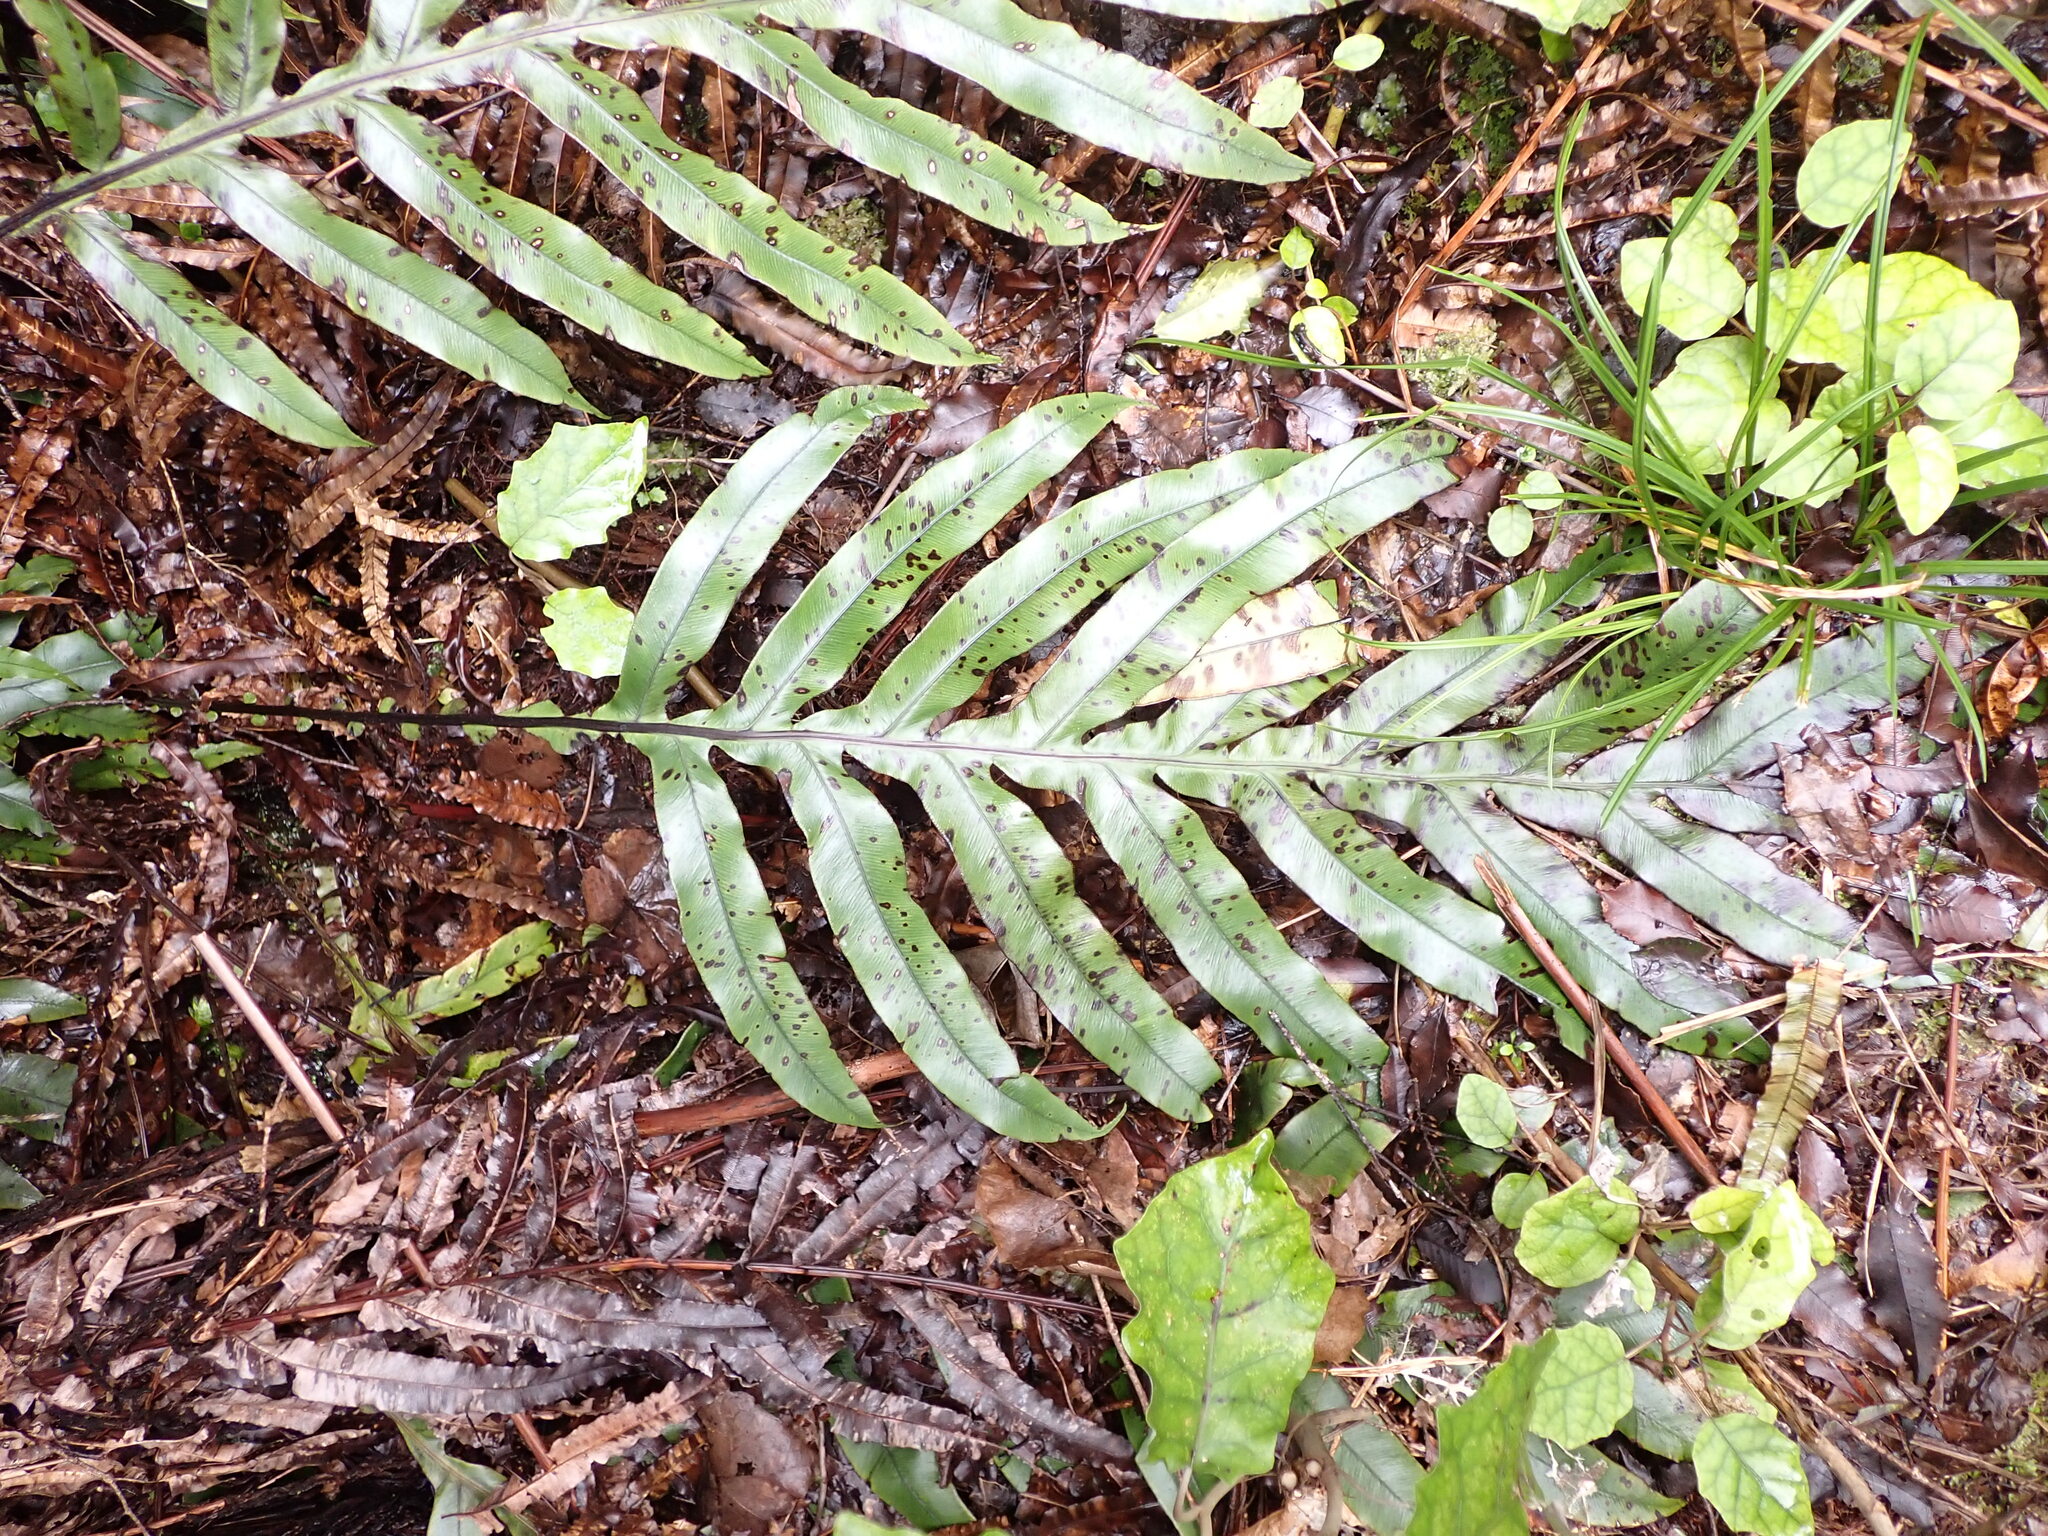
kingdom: Plantae
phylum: Tracheophyta
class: Polypodiopsida
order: Polypodiales
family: Blechnaceae
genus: Austroblechnum
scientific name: Austroblechnum colensoi
